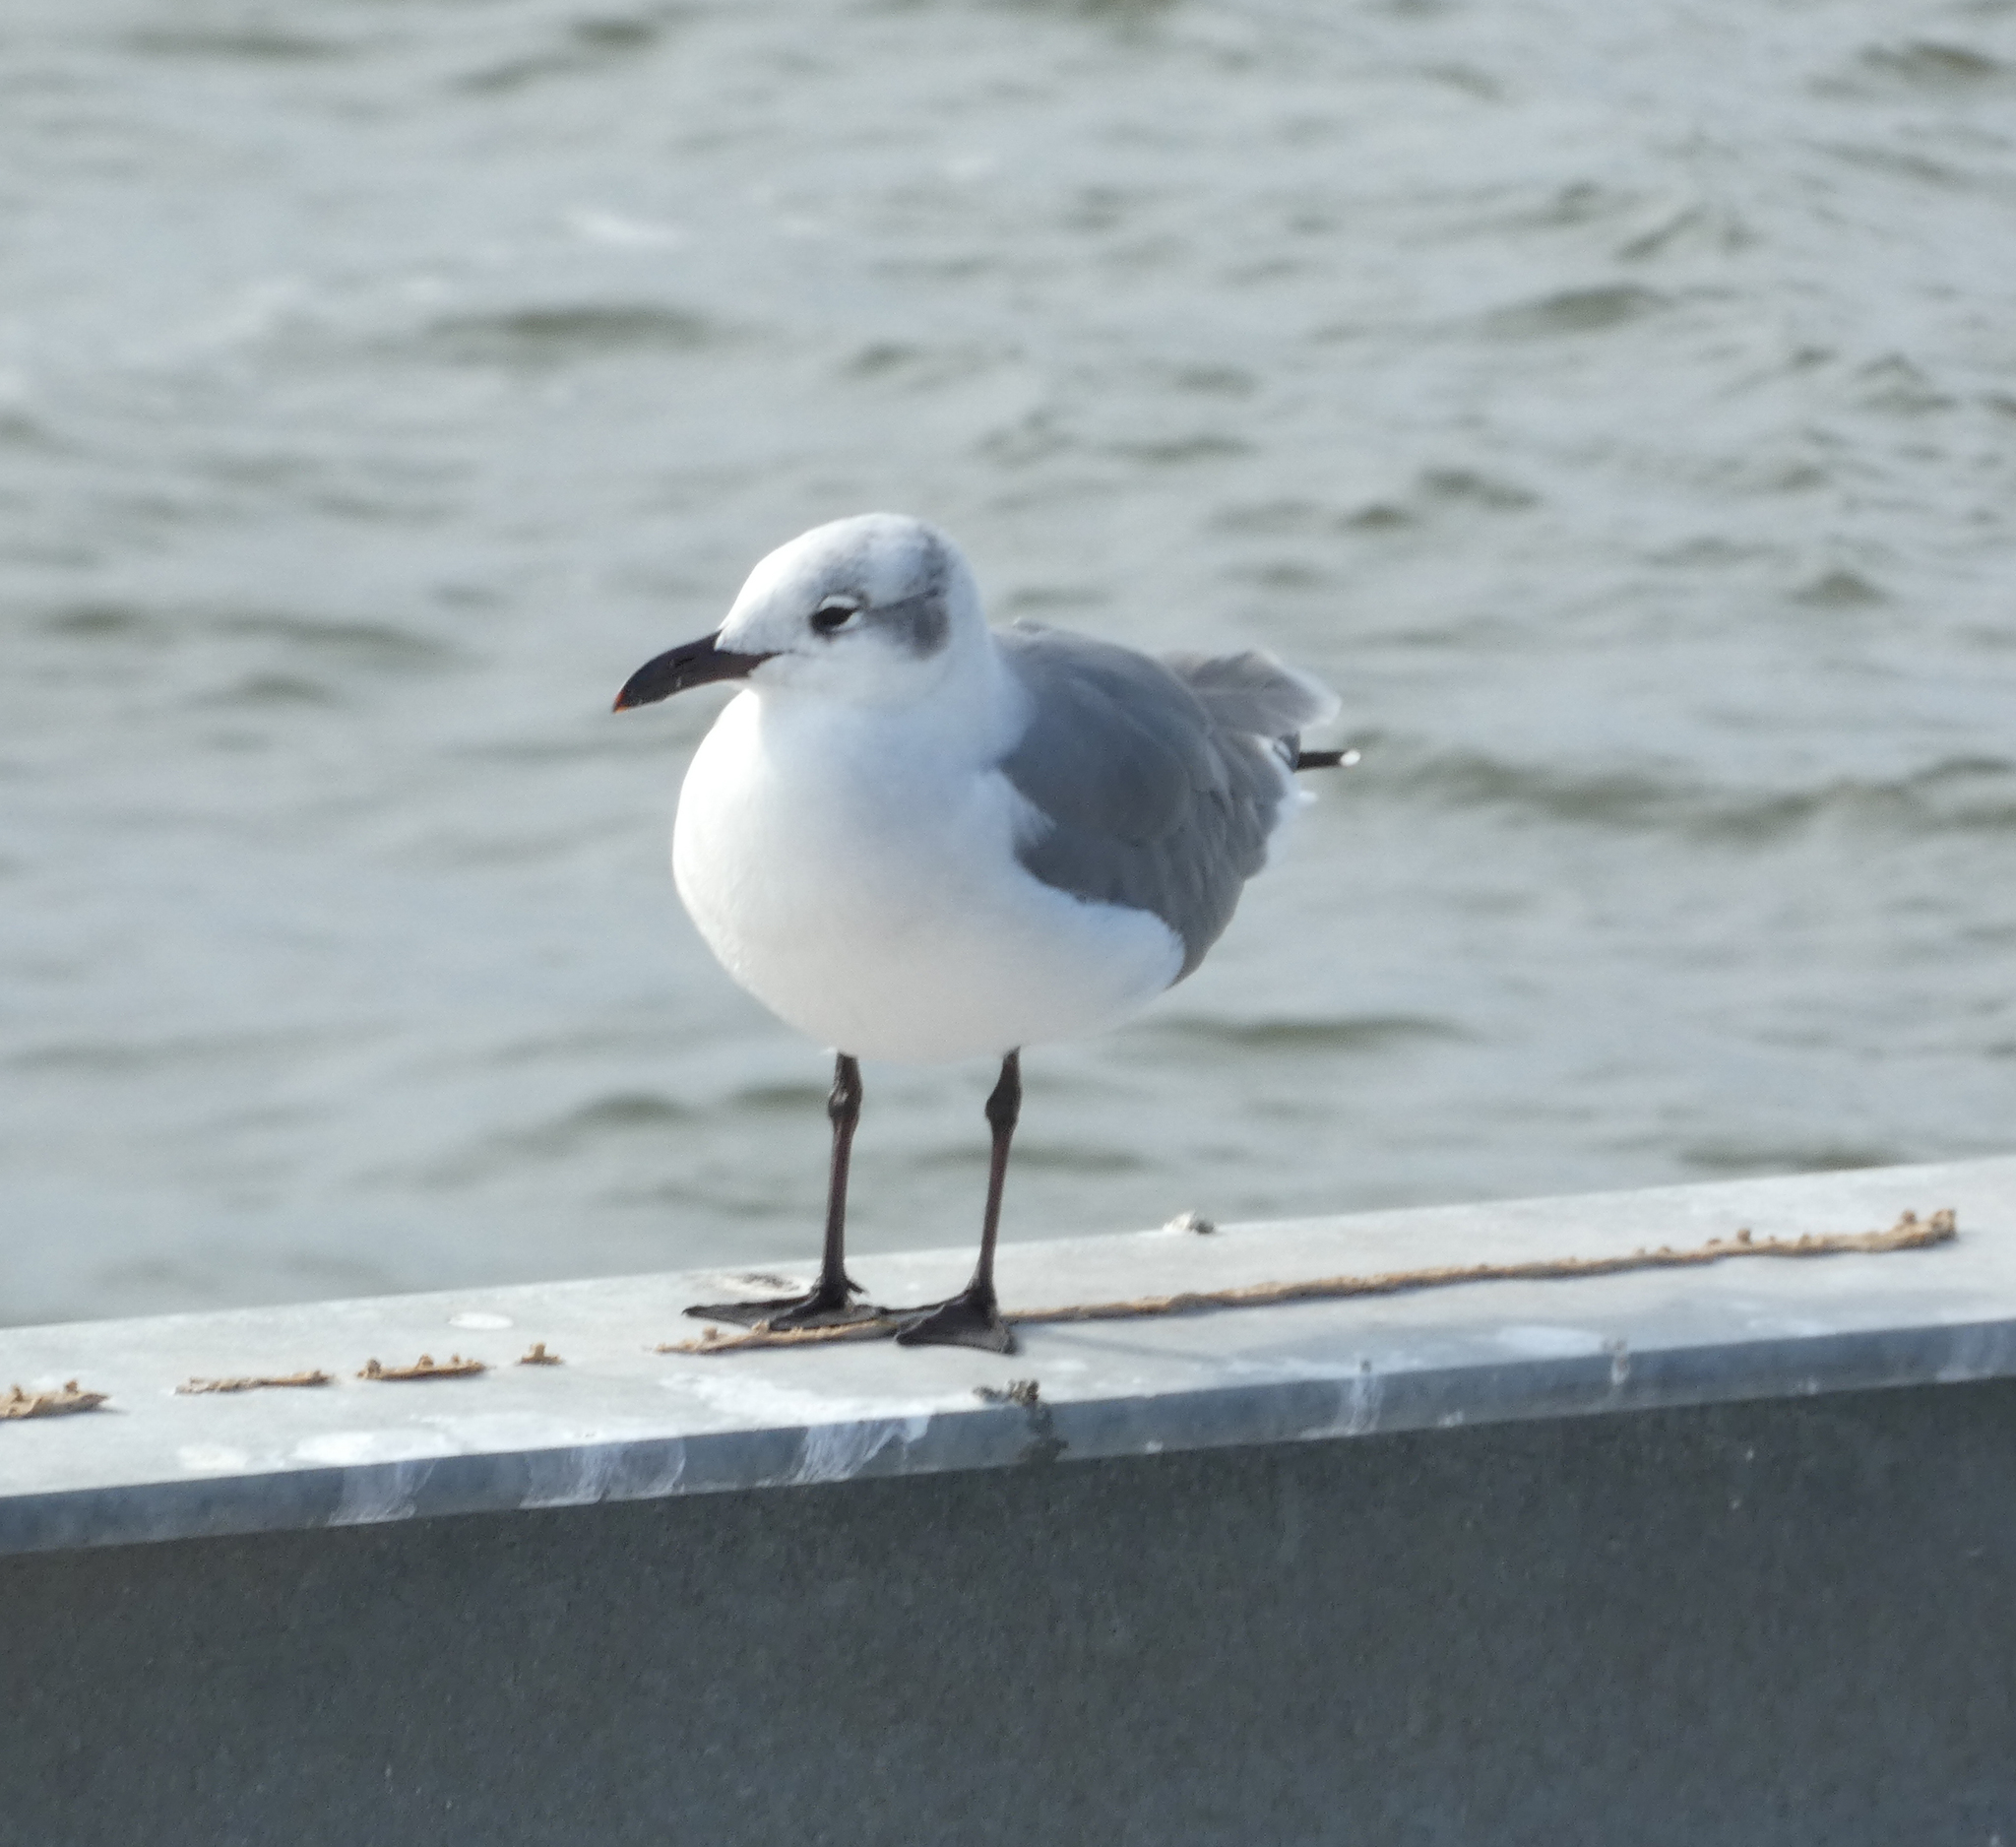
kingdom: Animalia
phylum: Chordata
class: Aves
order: Charadriiformes
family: Laridae
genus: Leucophaeus
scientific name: Leucophaeus atricilla
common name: Laughing gull
